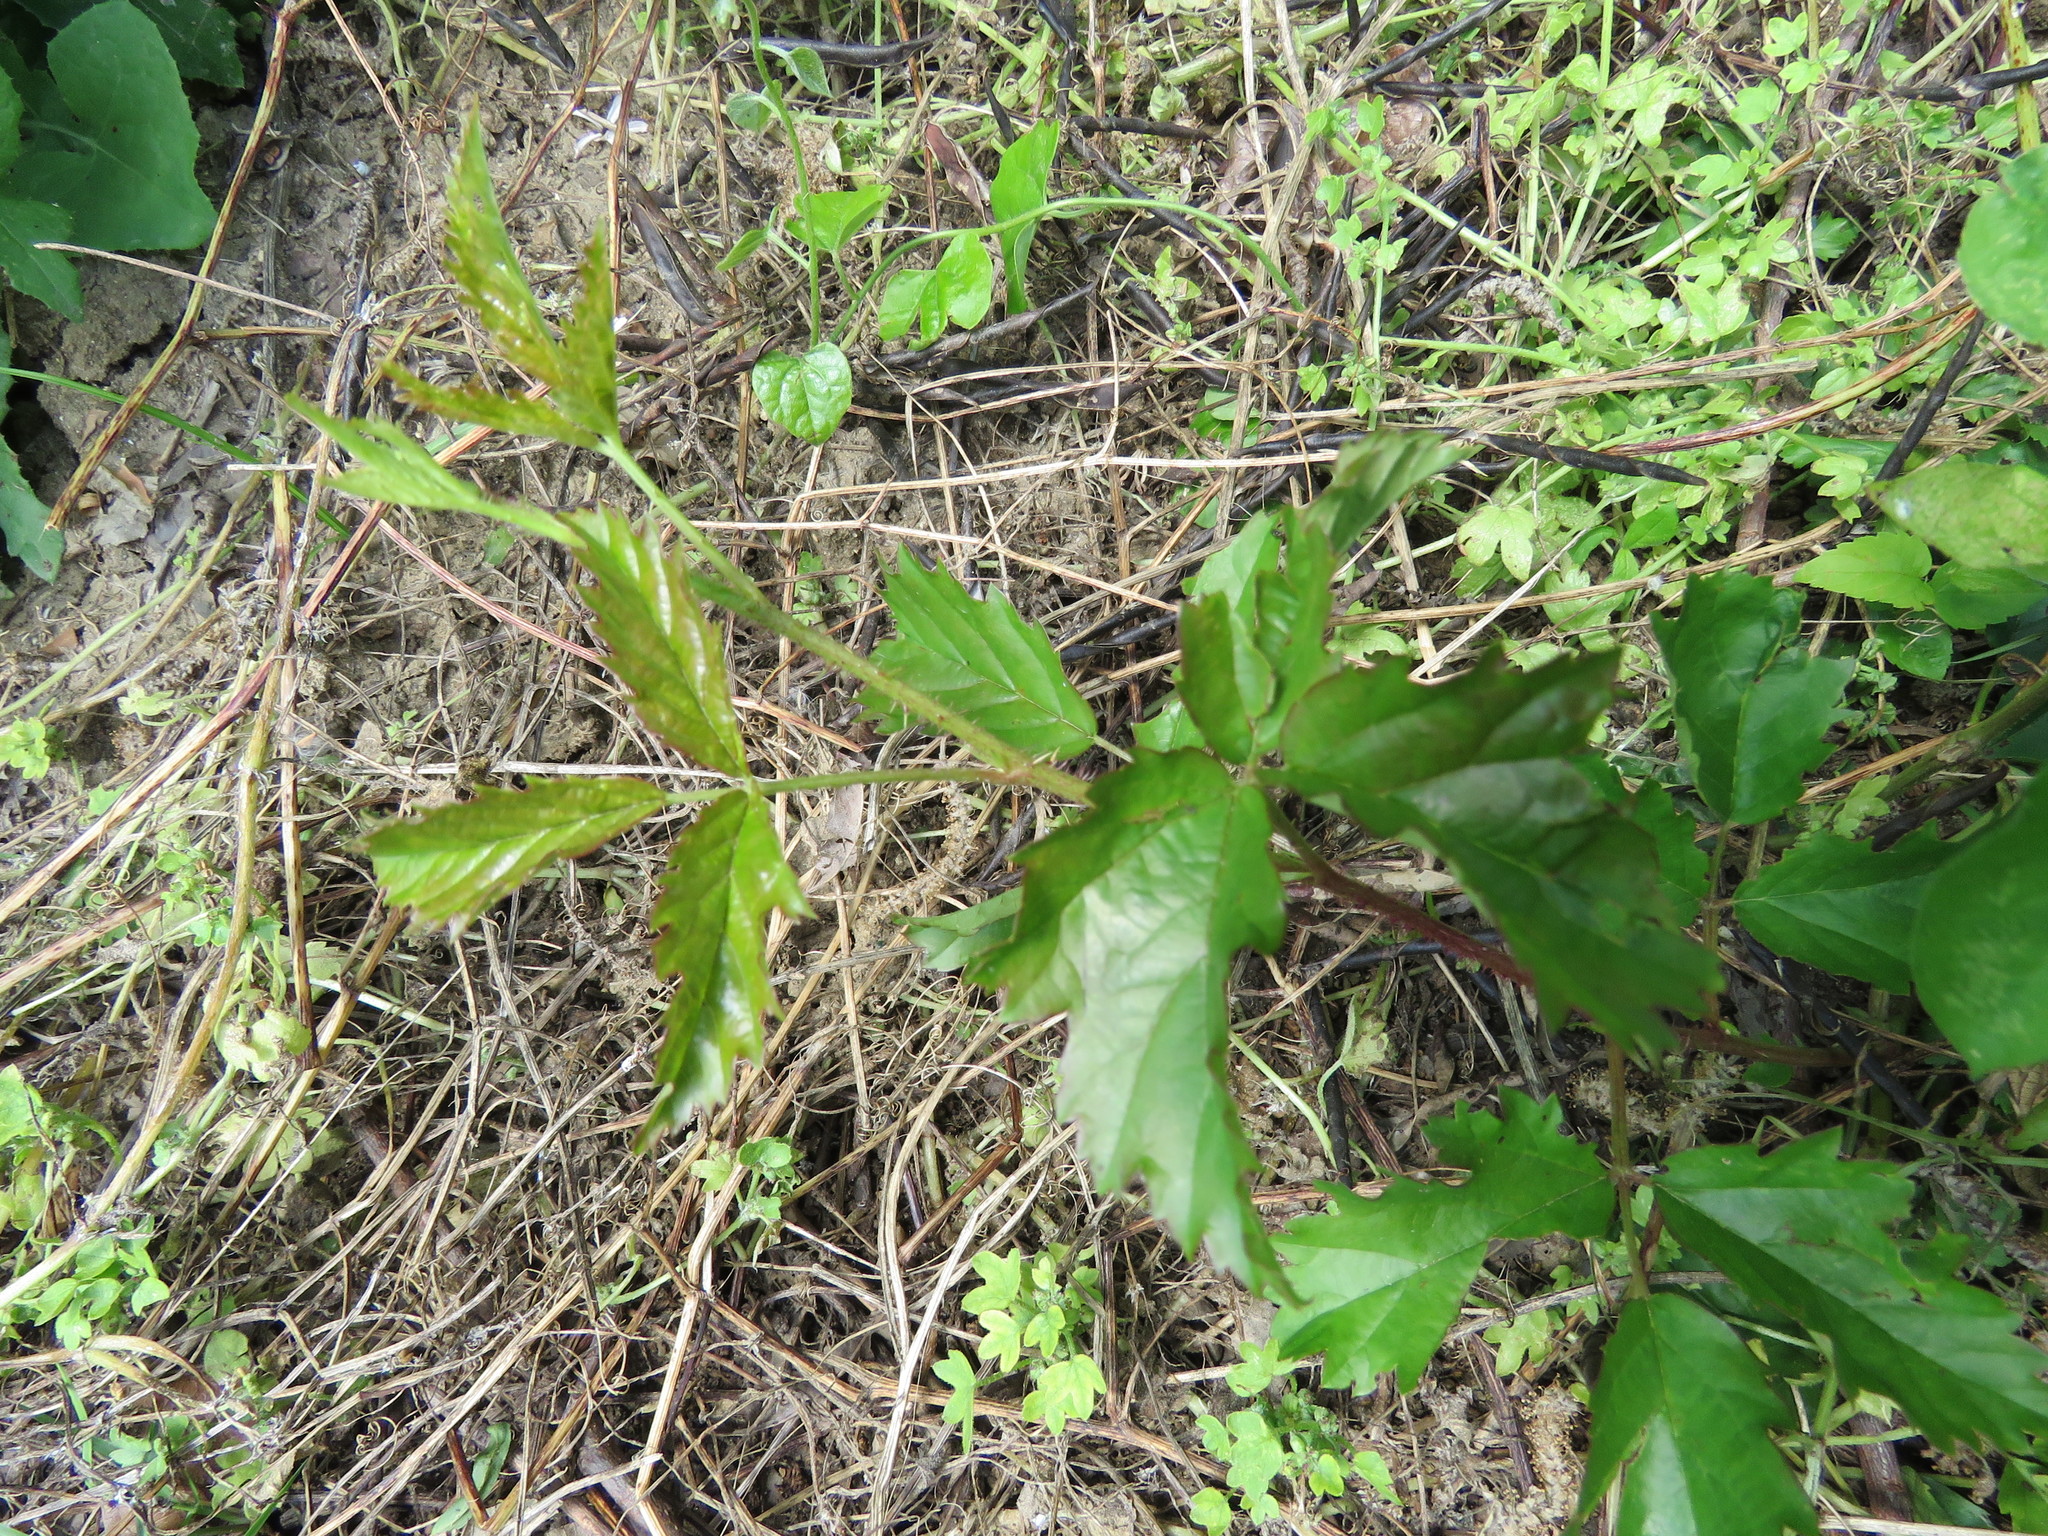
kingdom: Plantae
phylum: Tracheophyta
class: Magnoliopsida
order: Rosales
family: Rosaceae
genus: Rubus
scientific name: Rubus trivialis
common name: Southern dewberry
